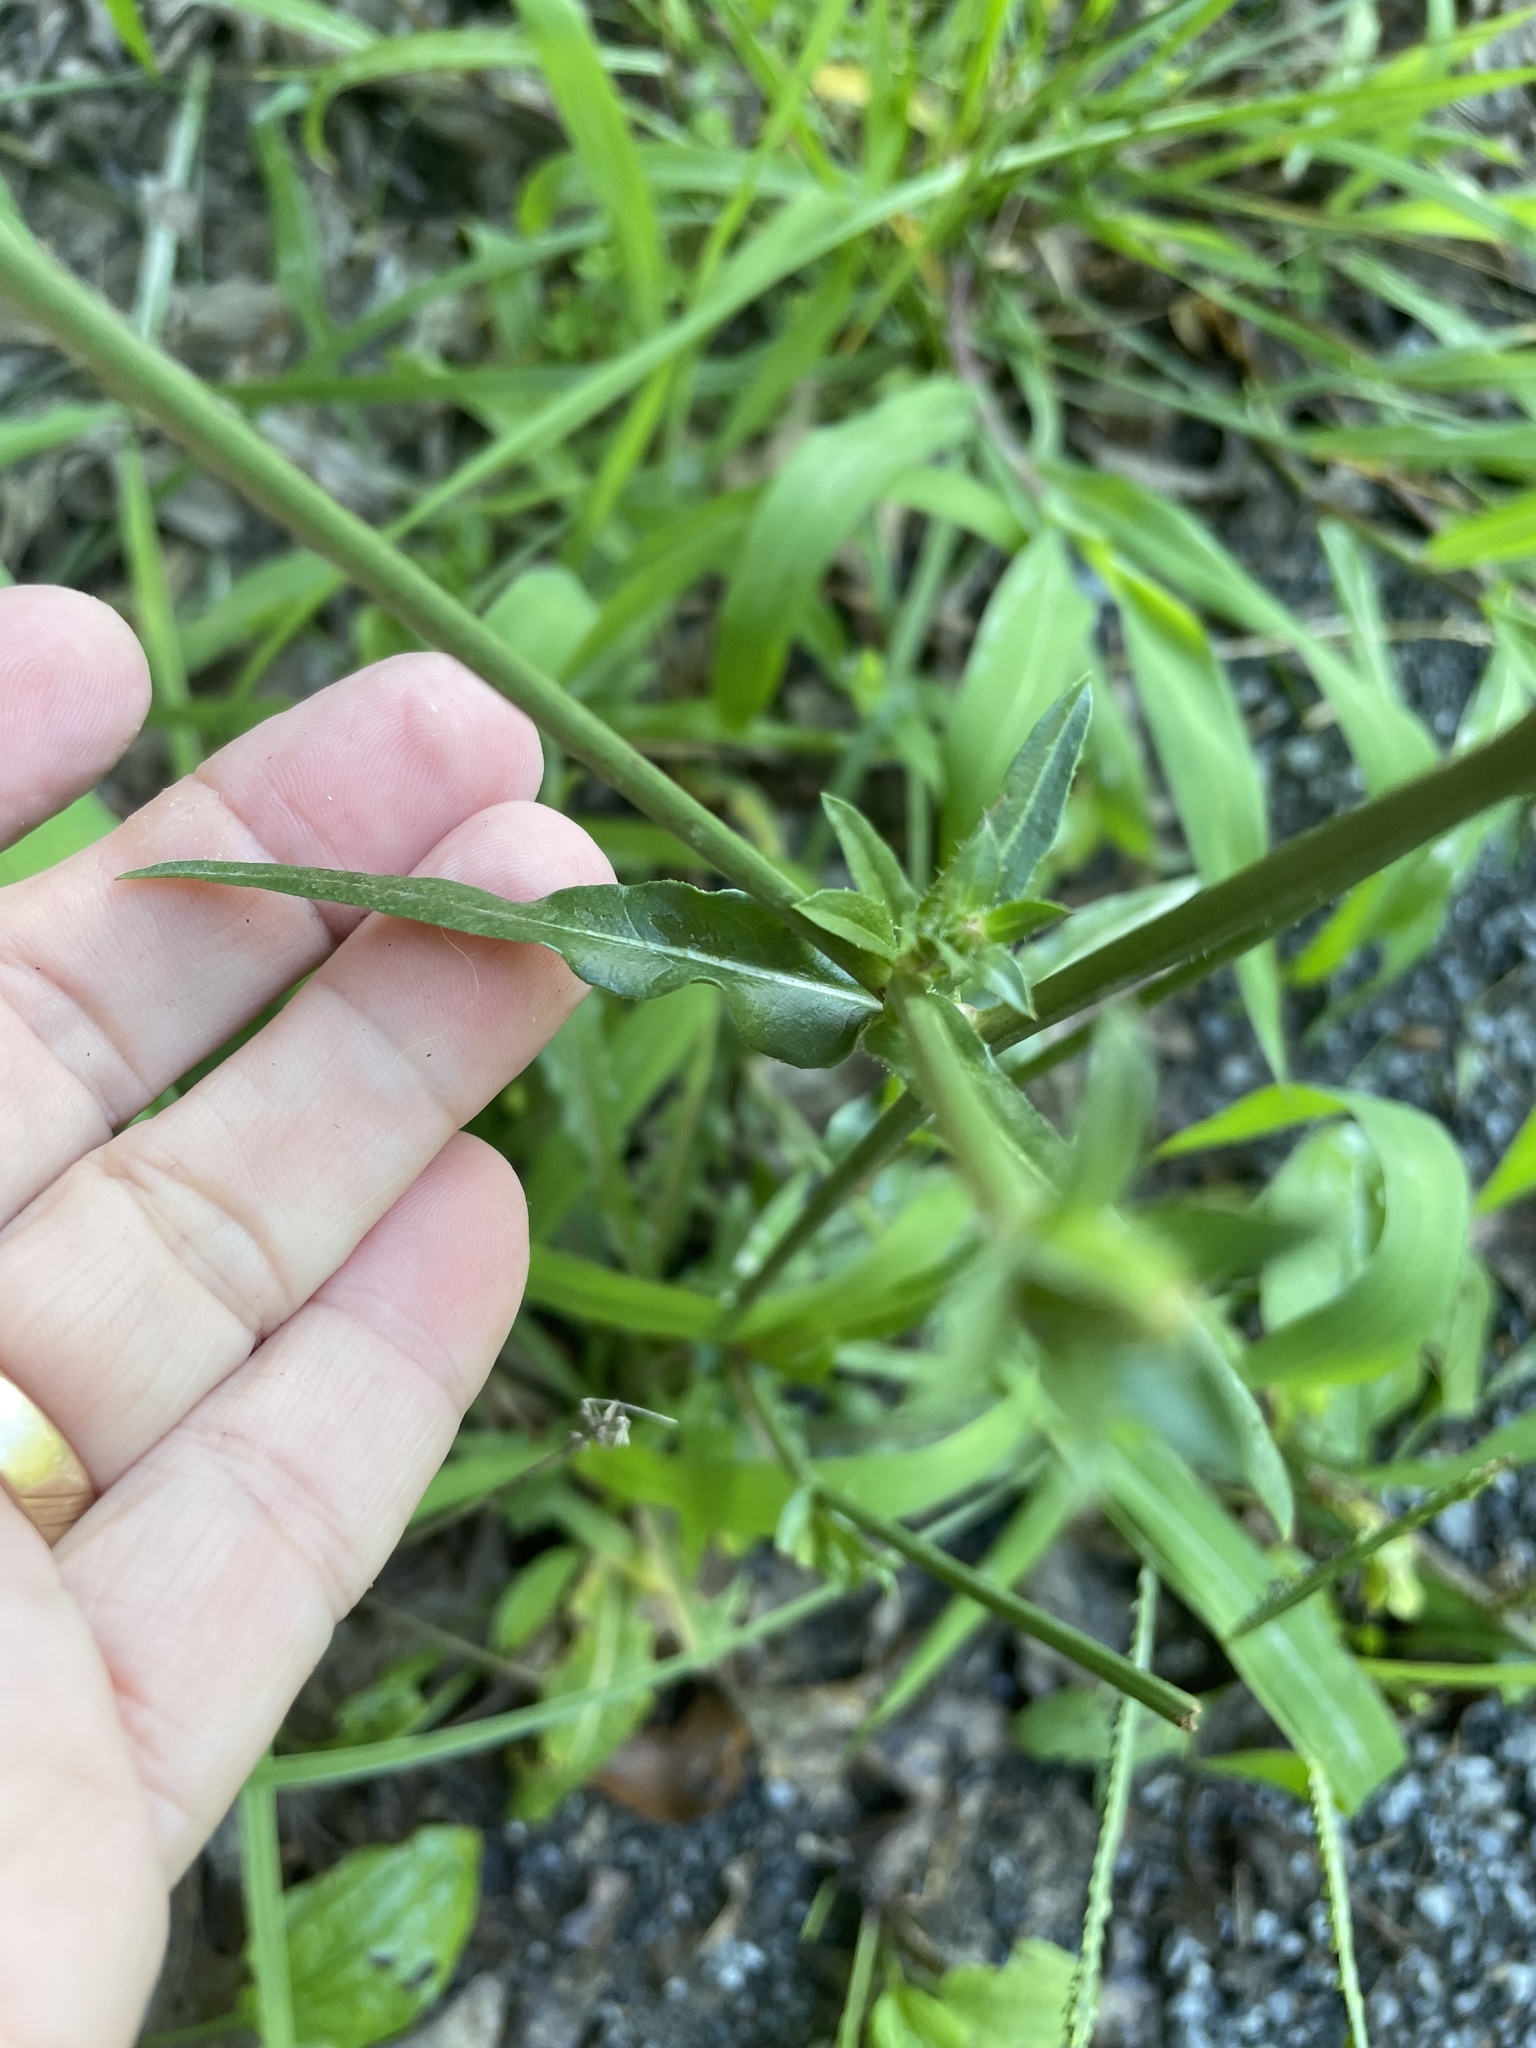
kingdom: Plantae
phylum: Tracheophyta
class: Magnoliopsida
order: Asterales
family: Asteraceae
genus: Cichorium
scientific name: Cichorium intybus
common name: Chicory
